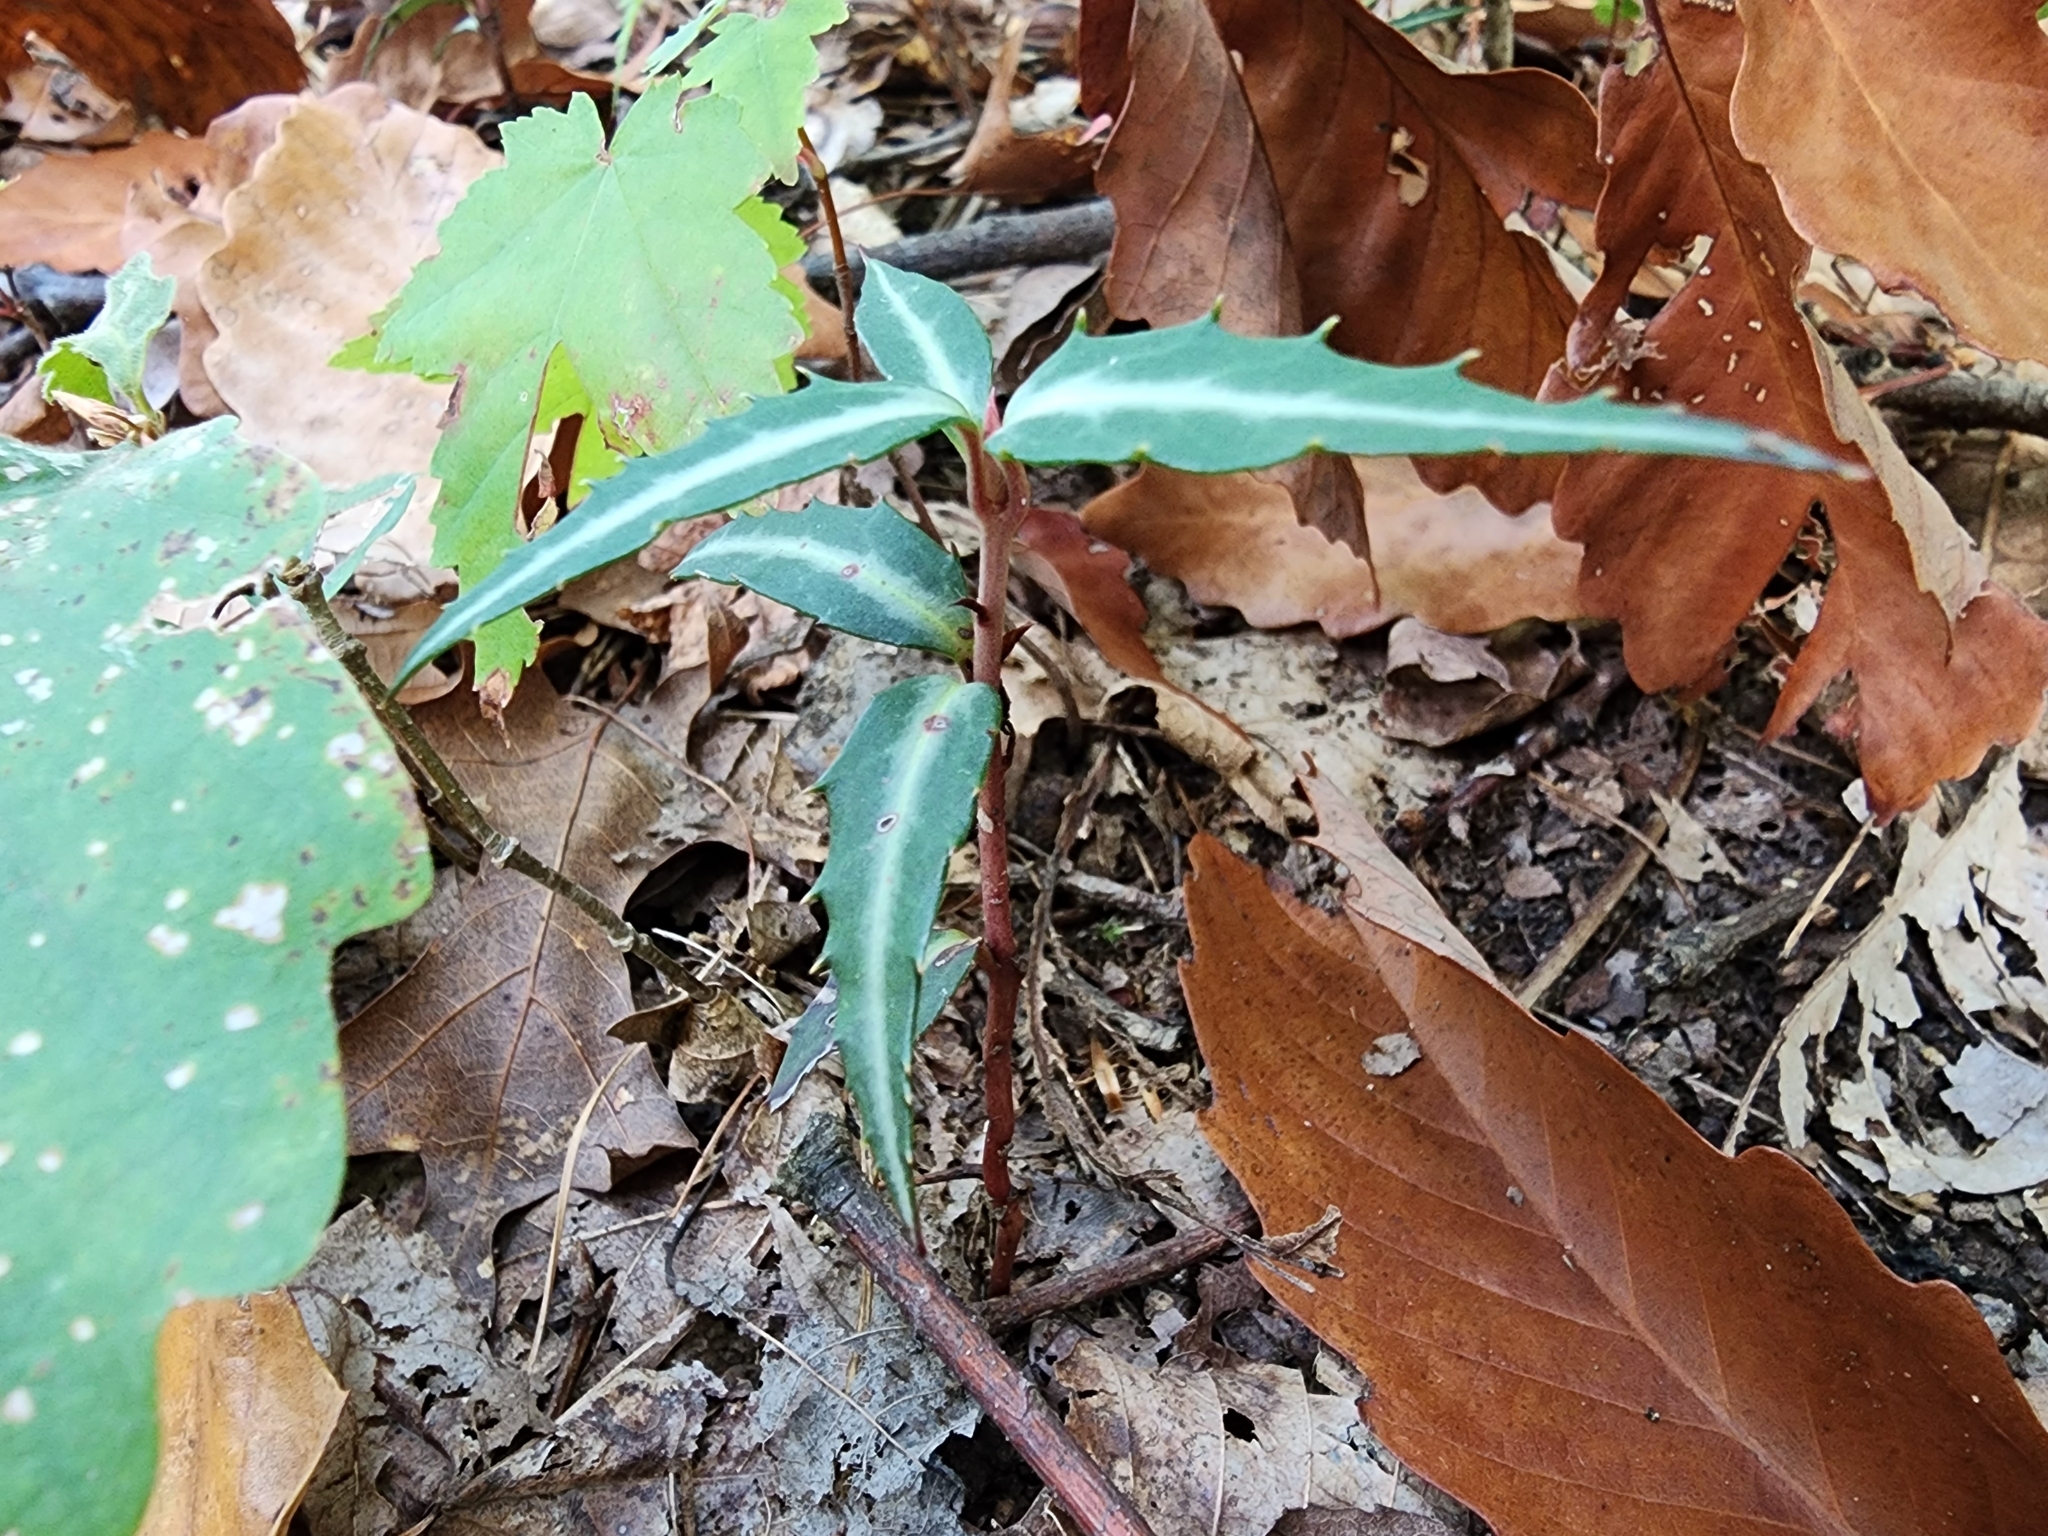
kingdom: Plantae
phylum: Tracheophyta
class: Magnoliopsida
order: Ericales
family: Ericaceae
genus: Chimaphila
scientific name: Chimaphila maculata
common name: Spotted pipsissewa
